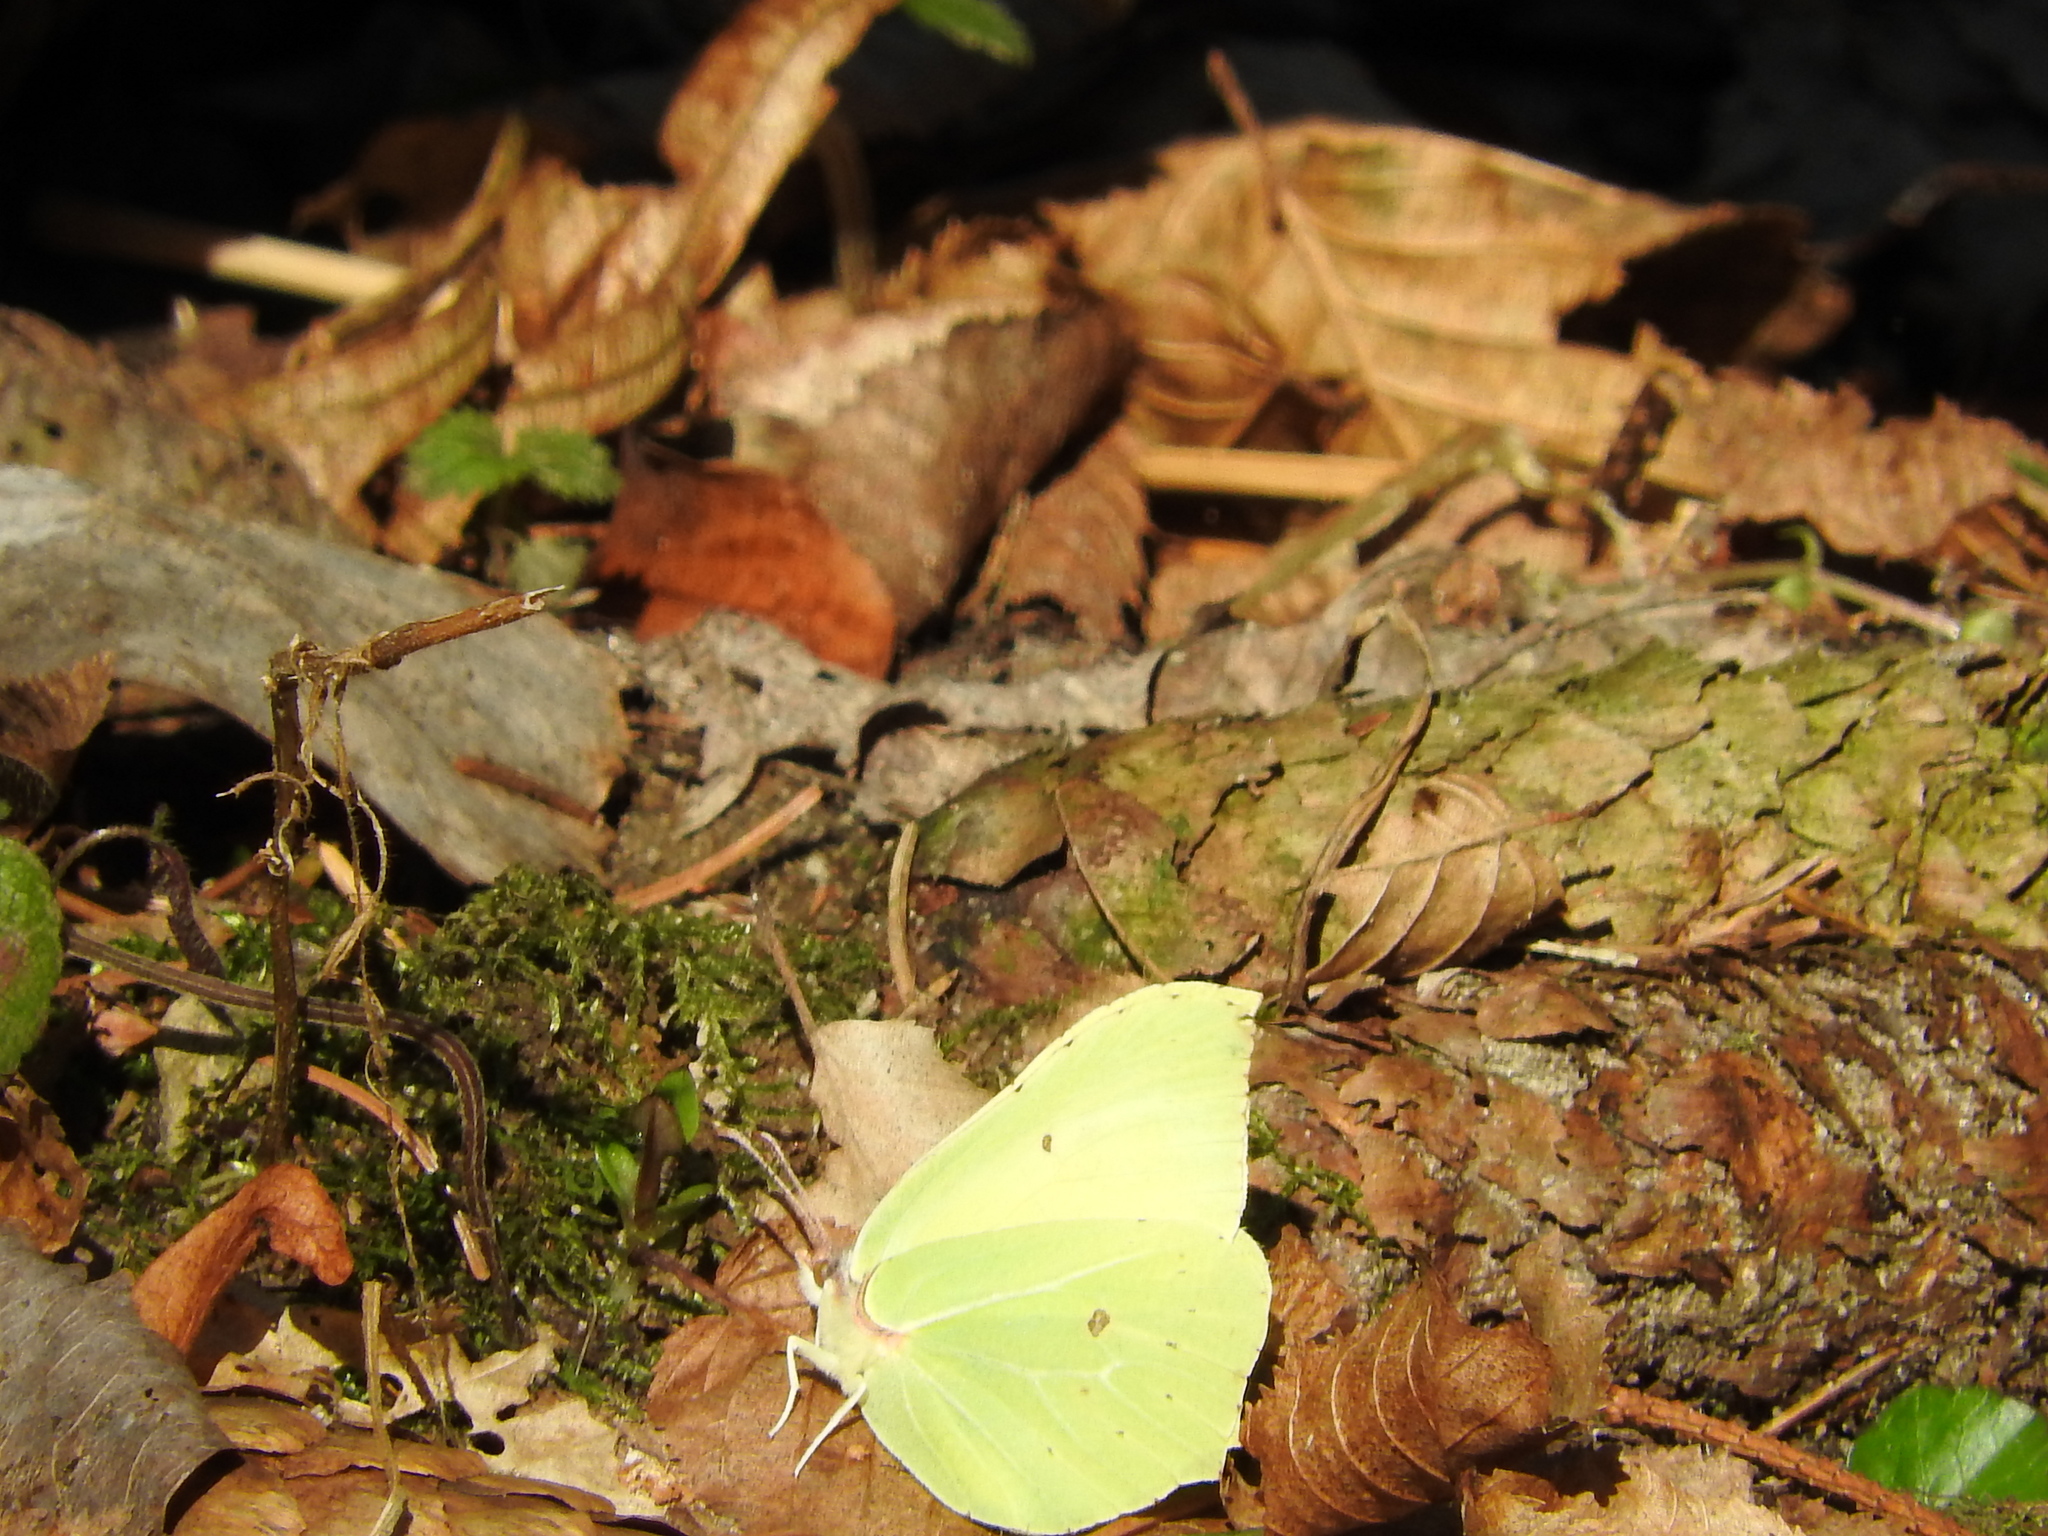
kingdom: Animalia
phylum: Arthropoda
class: Insecta
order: Lepidoptera
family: Pieridae
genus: Gonepteryx
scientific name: Gonepteryx rhamni
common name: Brimstone
